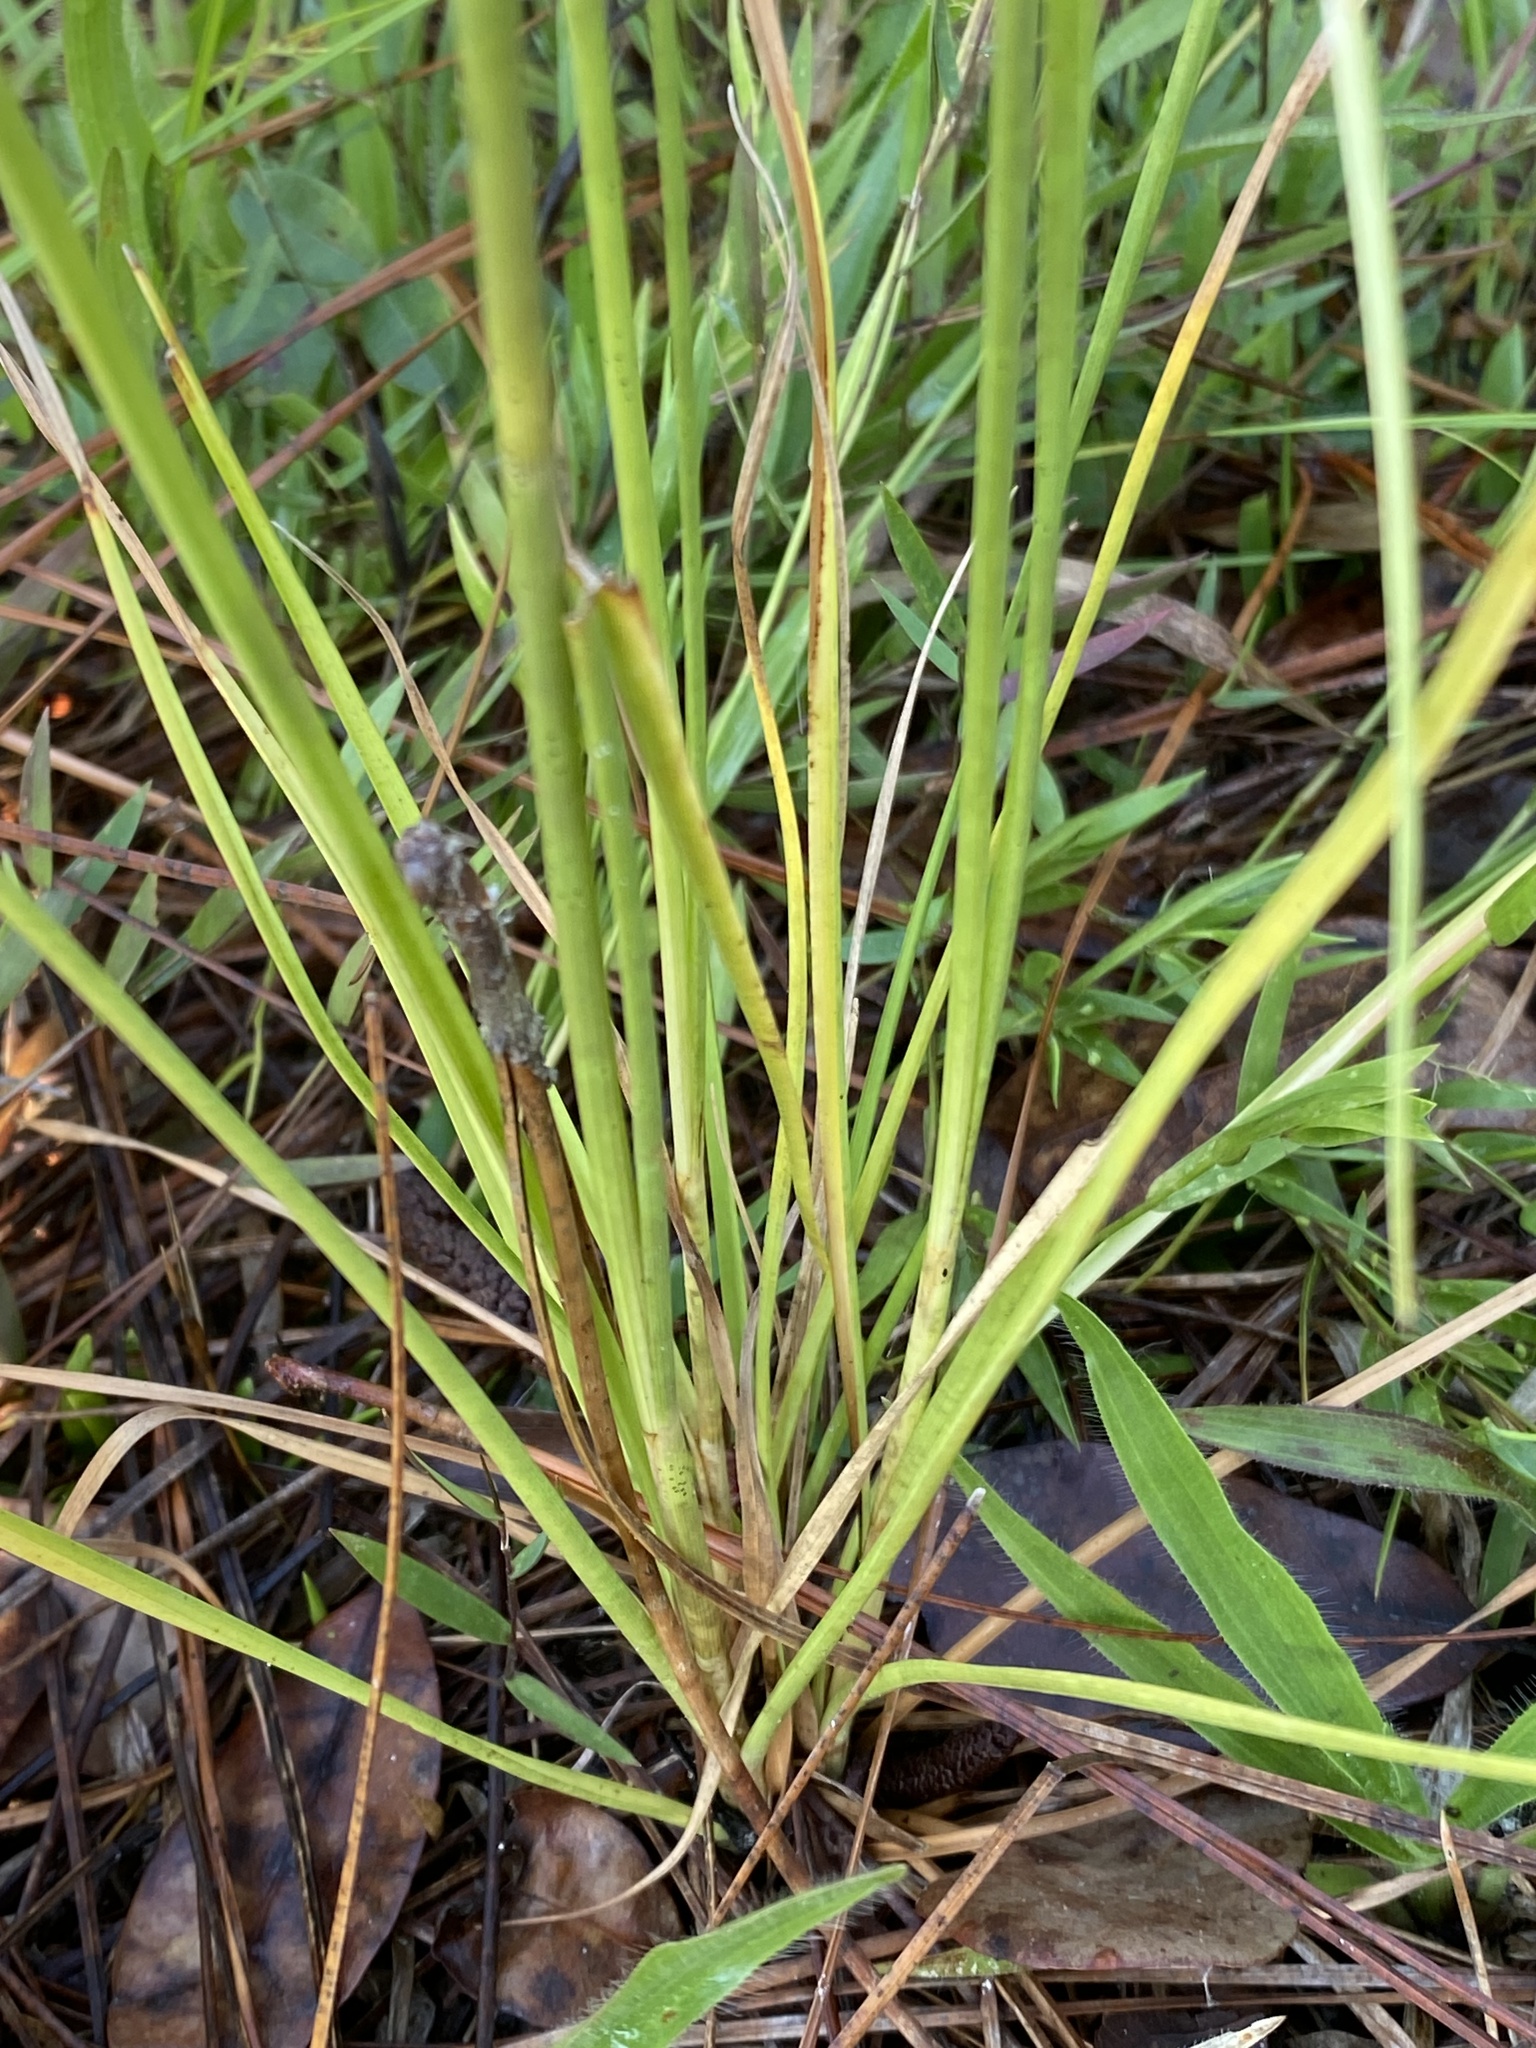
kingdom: Plantae
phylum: Tracheophyta
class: Liliopsida
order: Poales
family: Cyperaceae
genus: Rhynchospora
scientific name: Rhynchospora fascicularis
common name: Fascicled beak sedge
